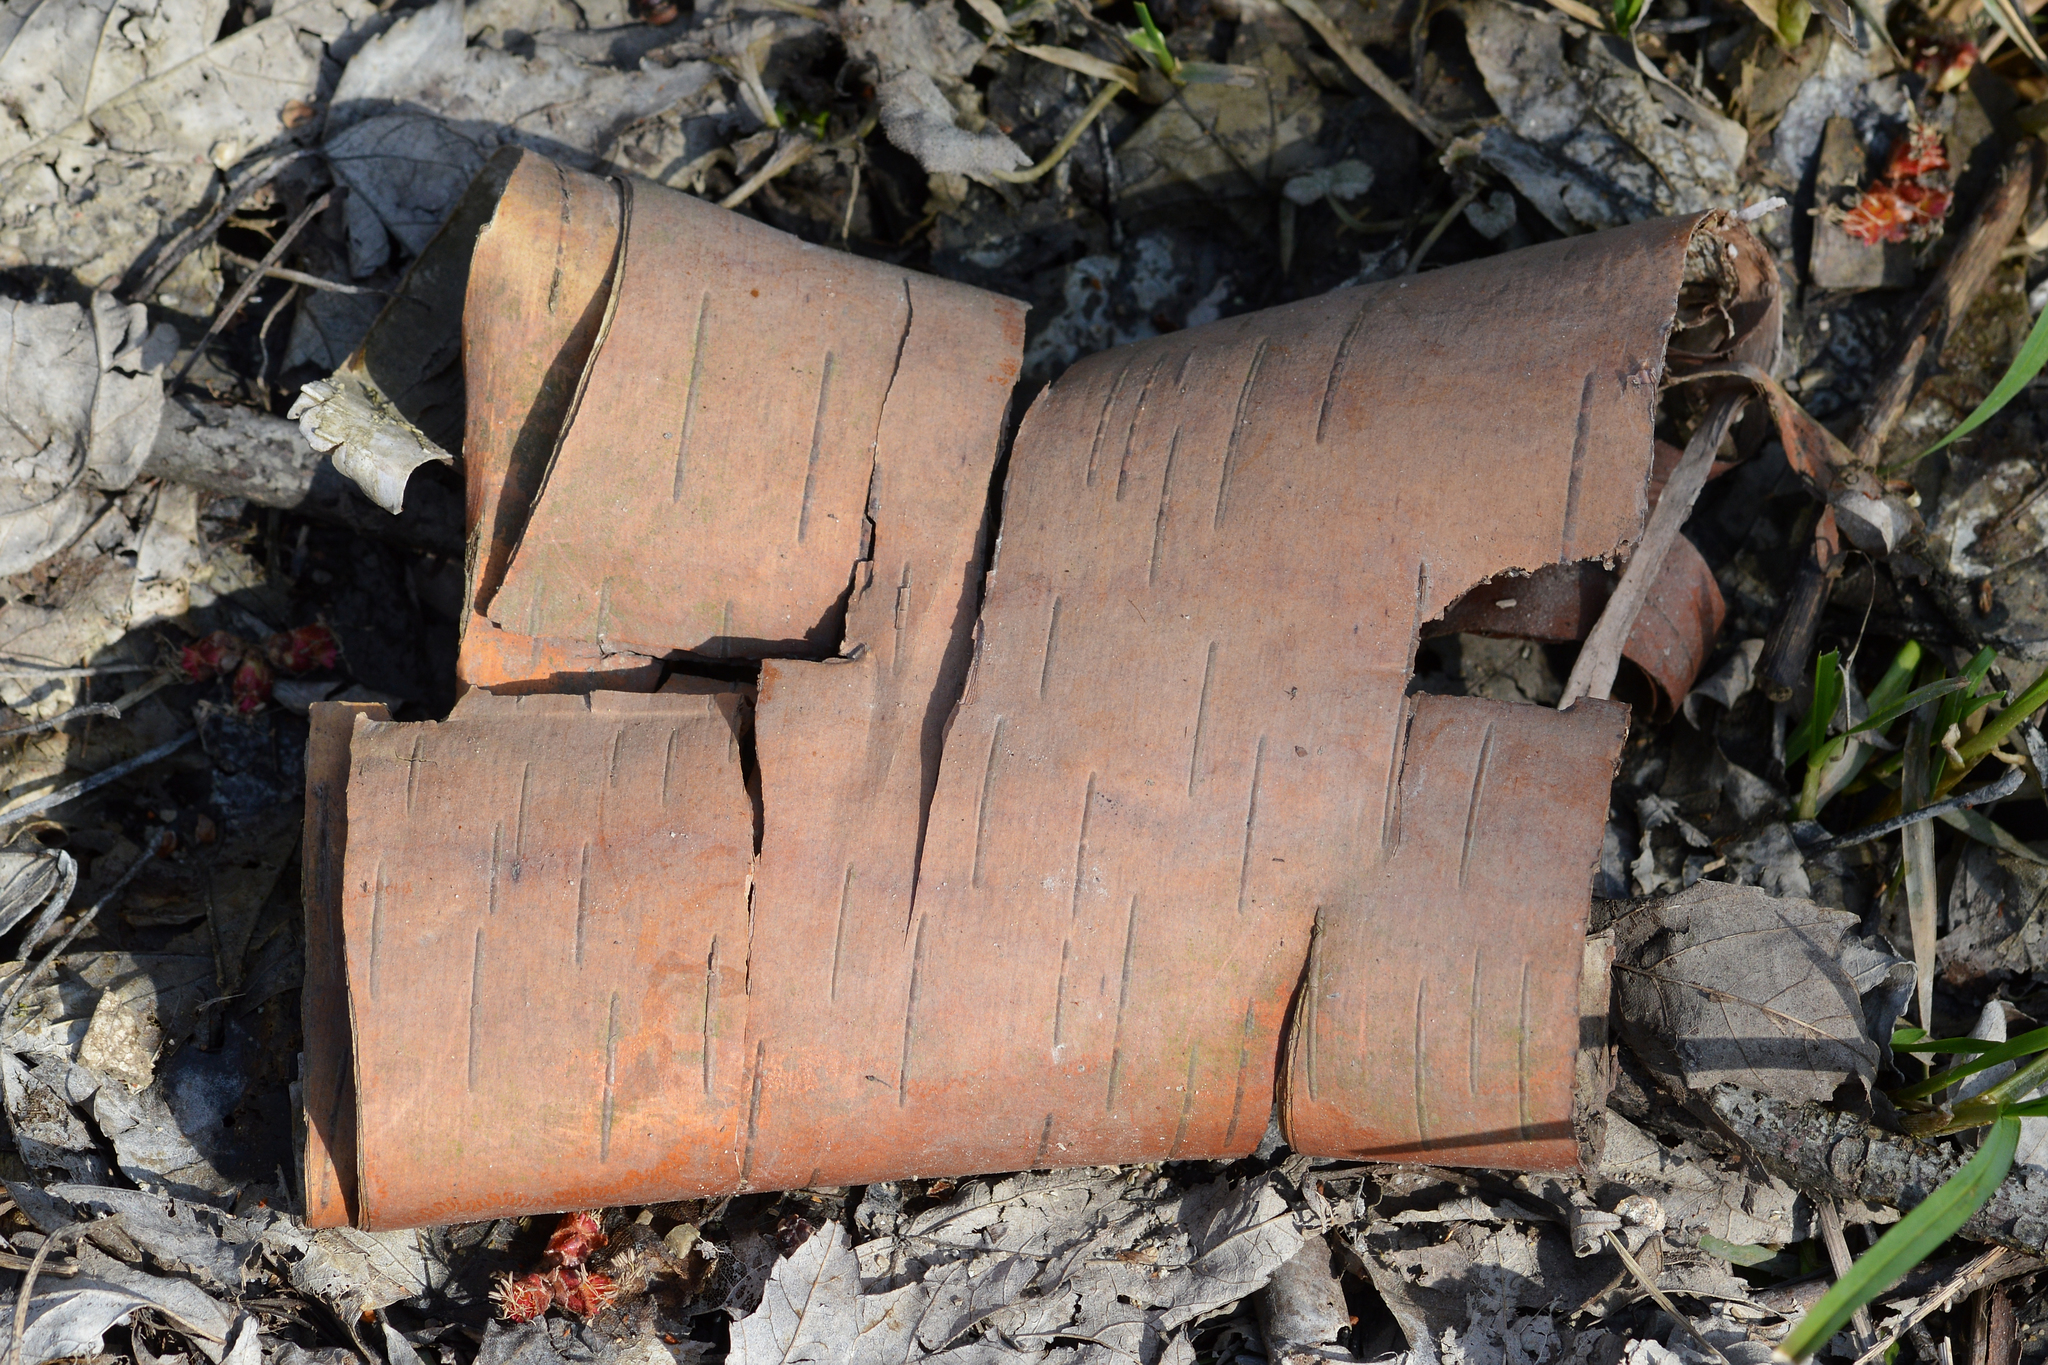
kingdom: Plantae
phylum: Tracheophyta
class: Magnoliopsida
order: Fagales
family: Betulaceae
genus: Betula
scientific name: Betula papyrifera
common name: Paper birch
